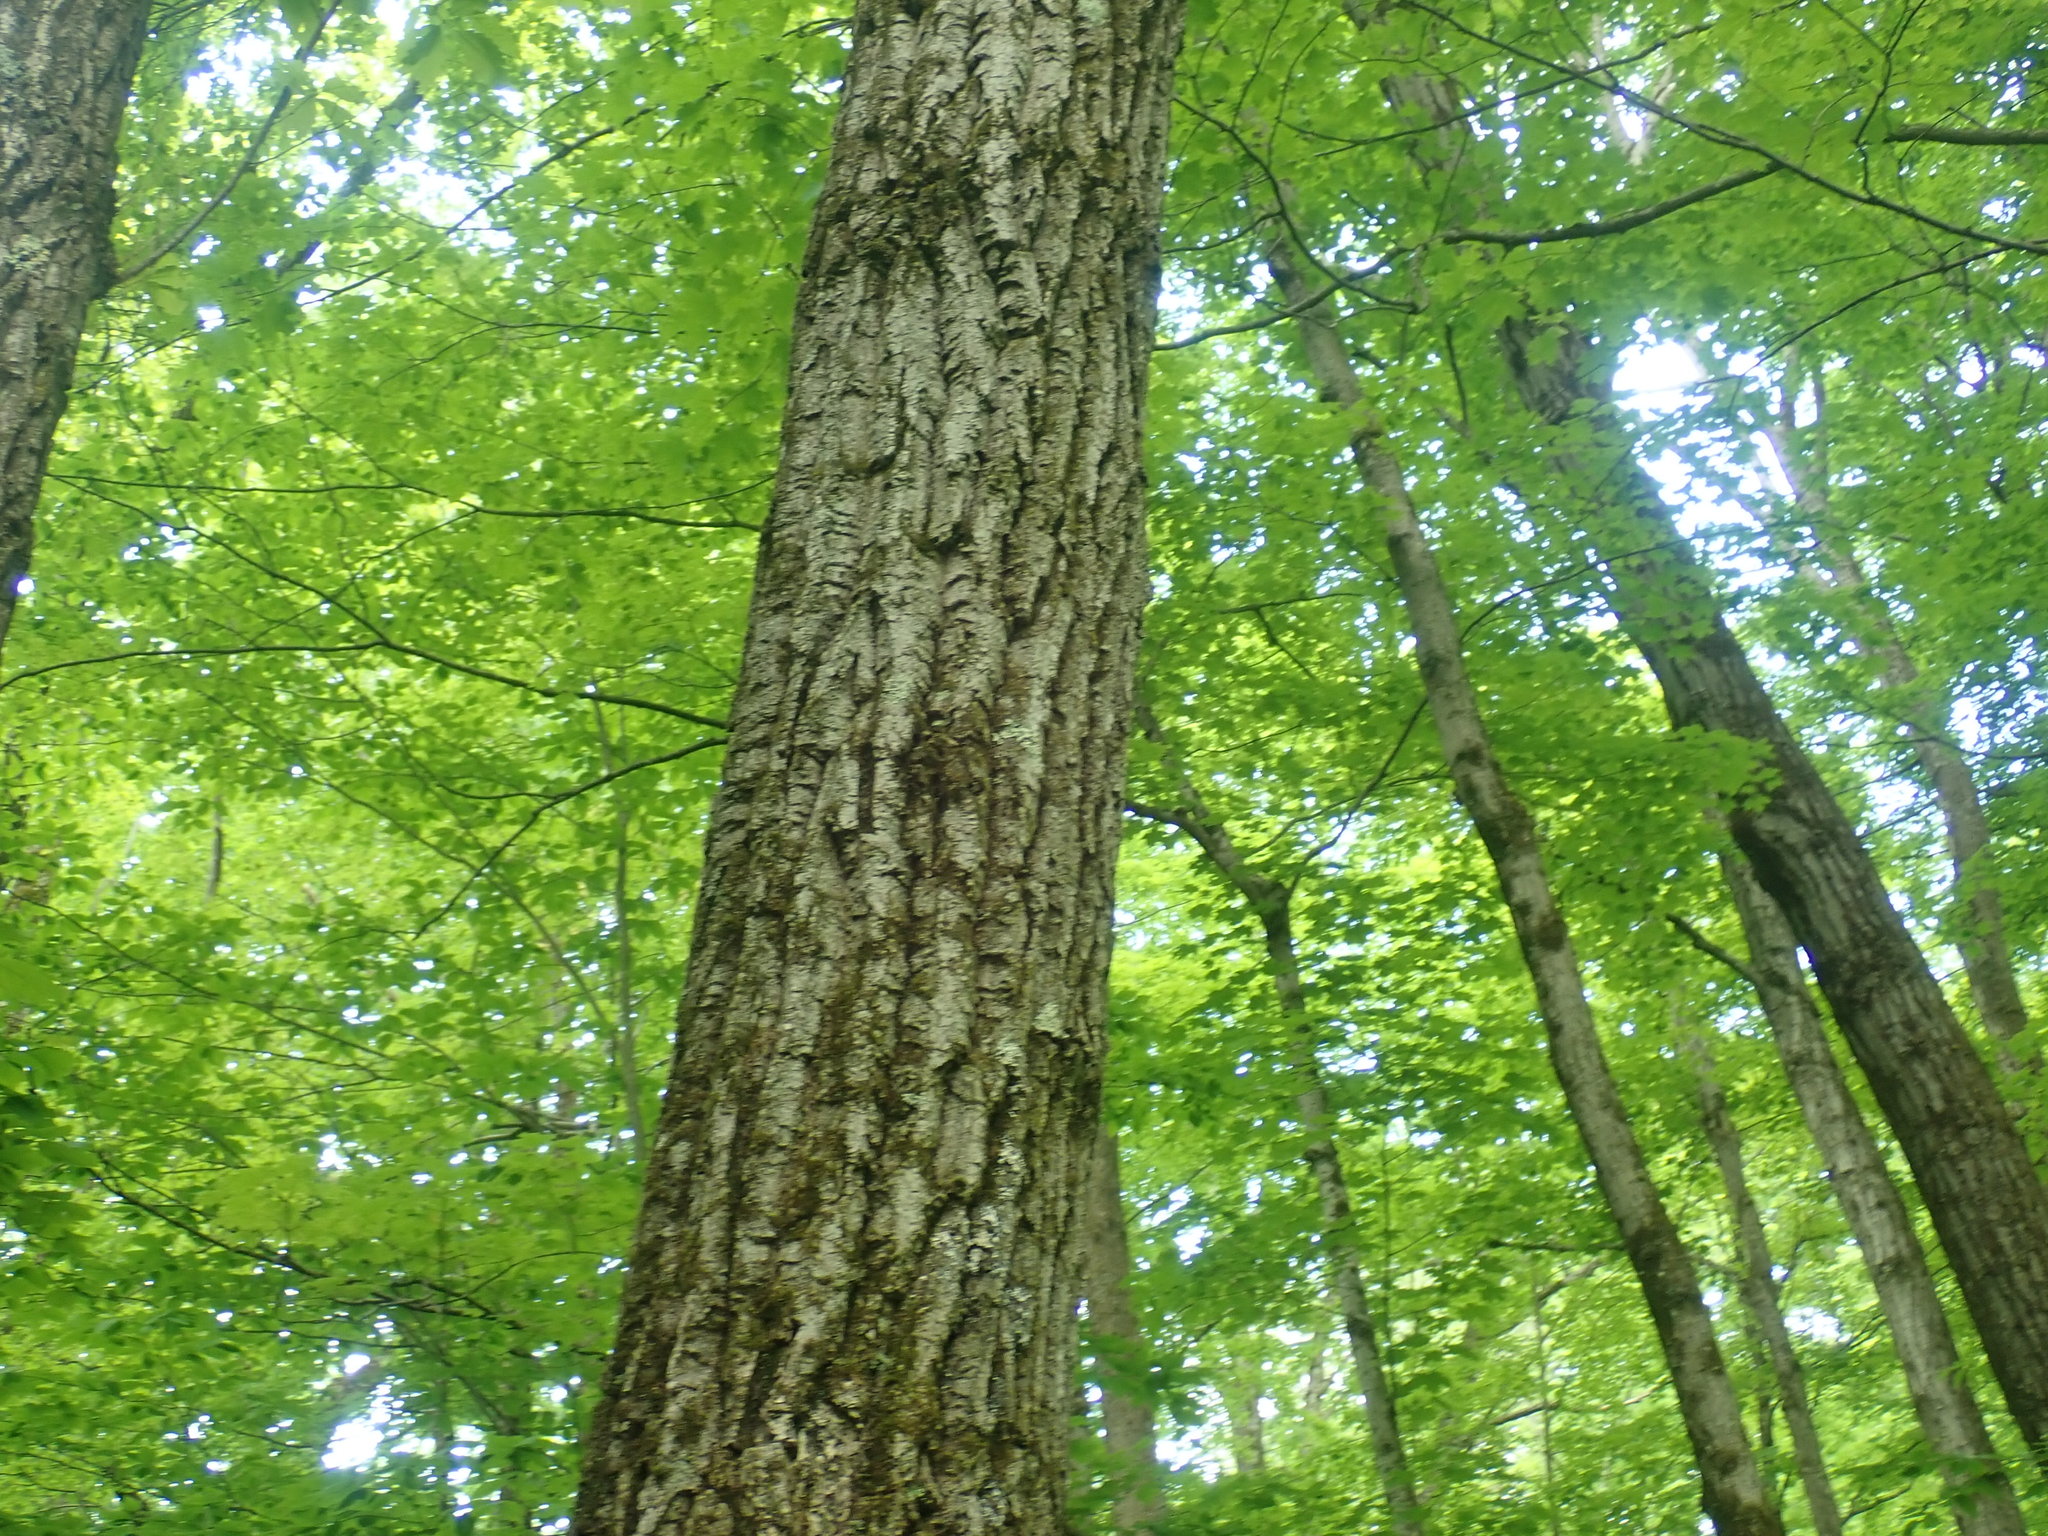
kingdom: Plantae
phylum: Tracheophyta
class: Magnoliopsida
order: Fagales
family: Fagaceae
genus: Quercus
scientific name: Quercus montana
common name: Chestnut oak
